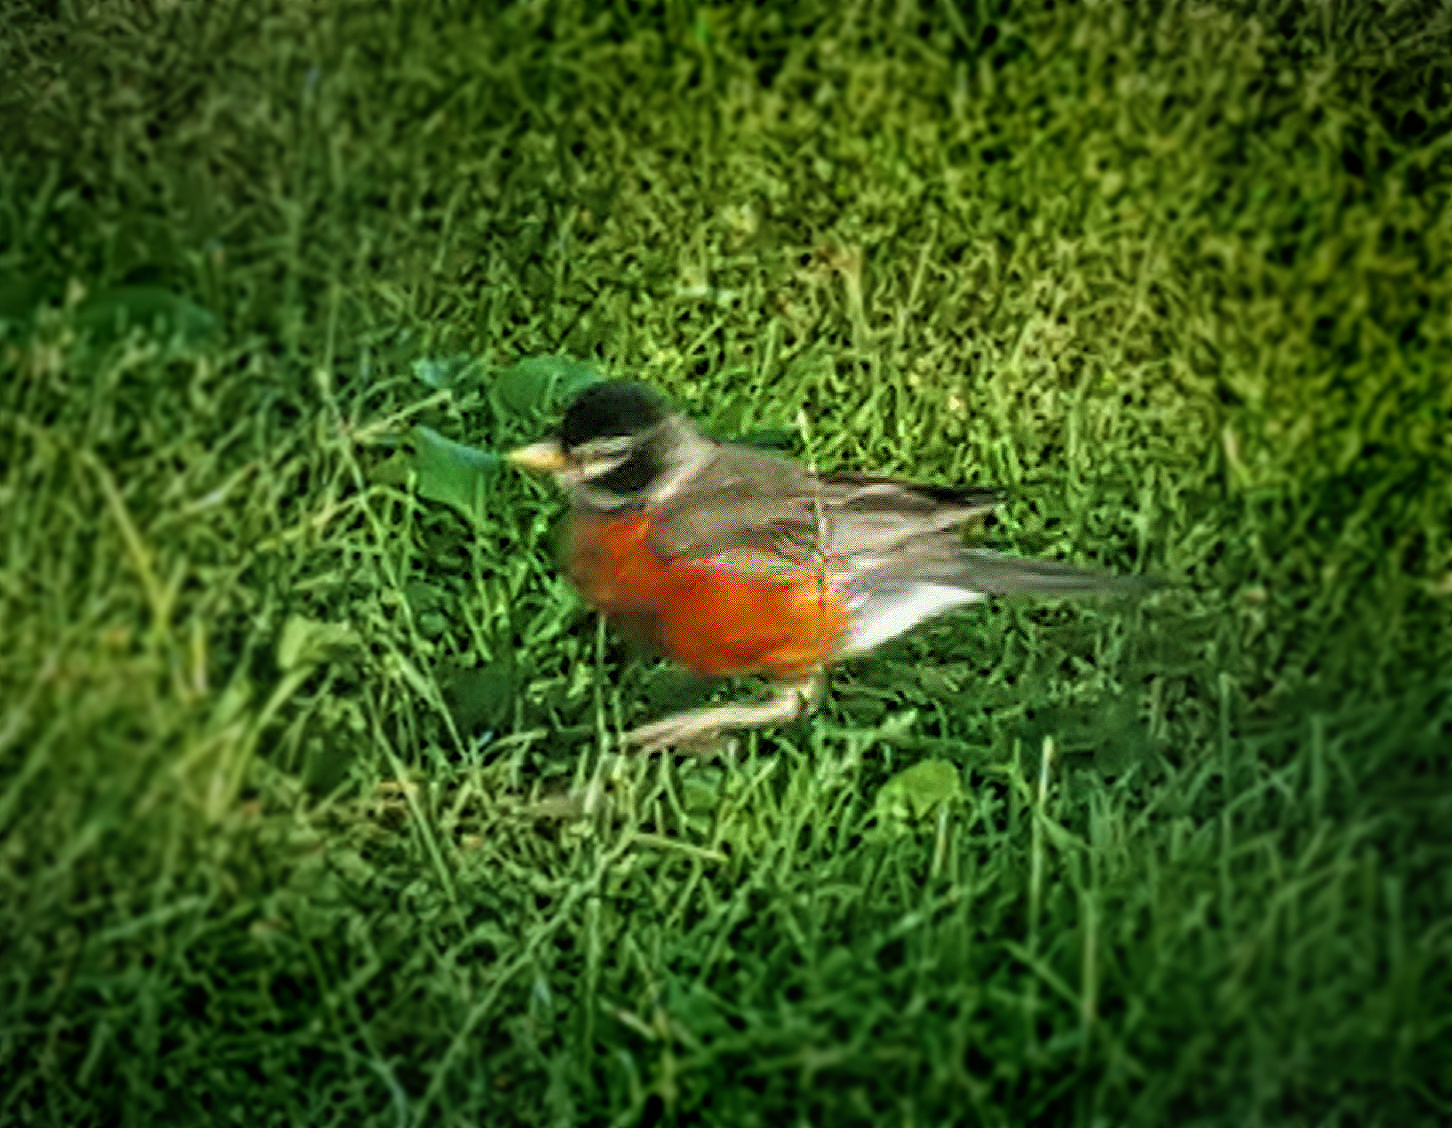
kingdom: Animalia
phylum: Chordata
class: Aves
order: Passeriformes
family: Turdidae
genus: Turdus
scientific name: Turdus migratorius
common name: American robin
